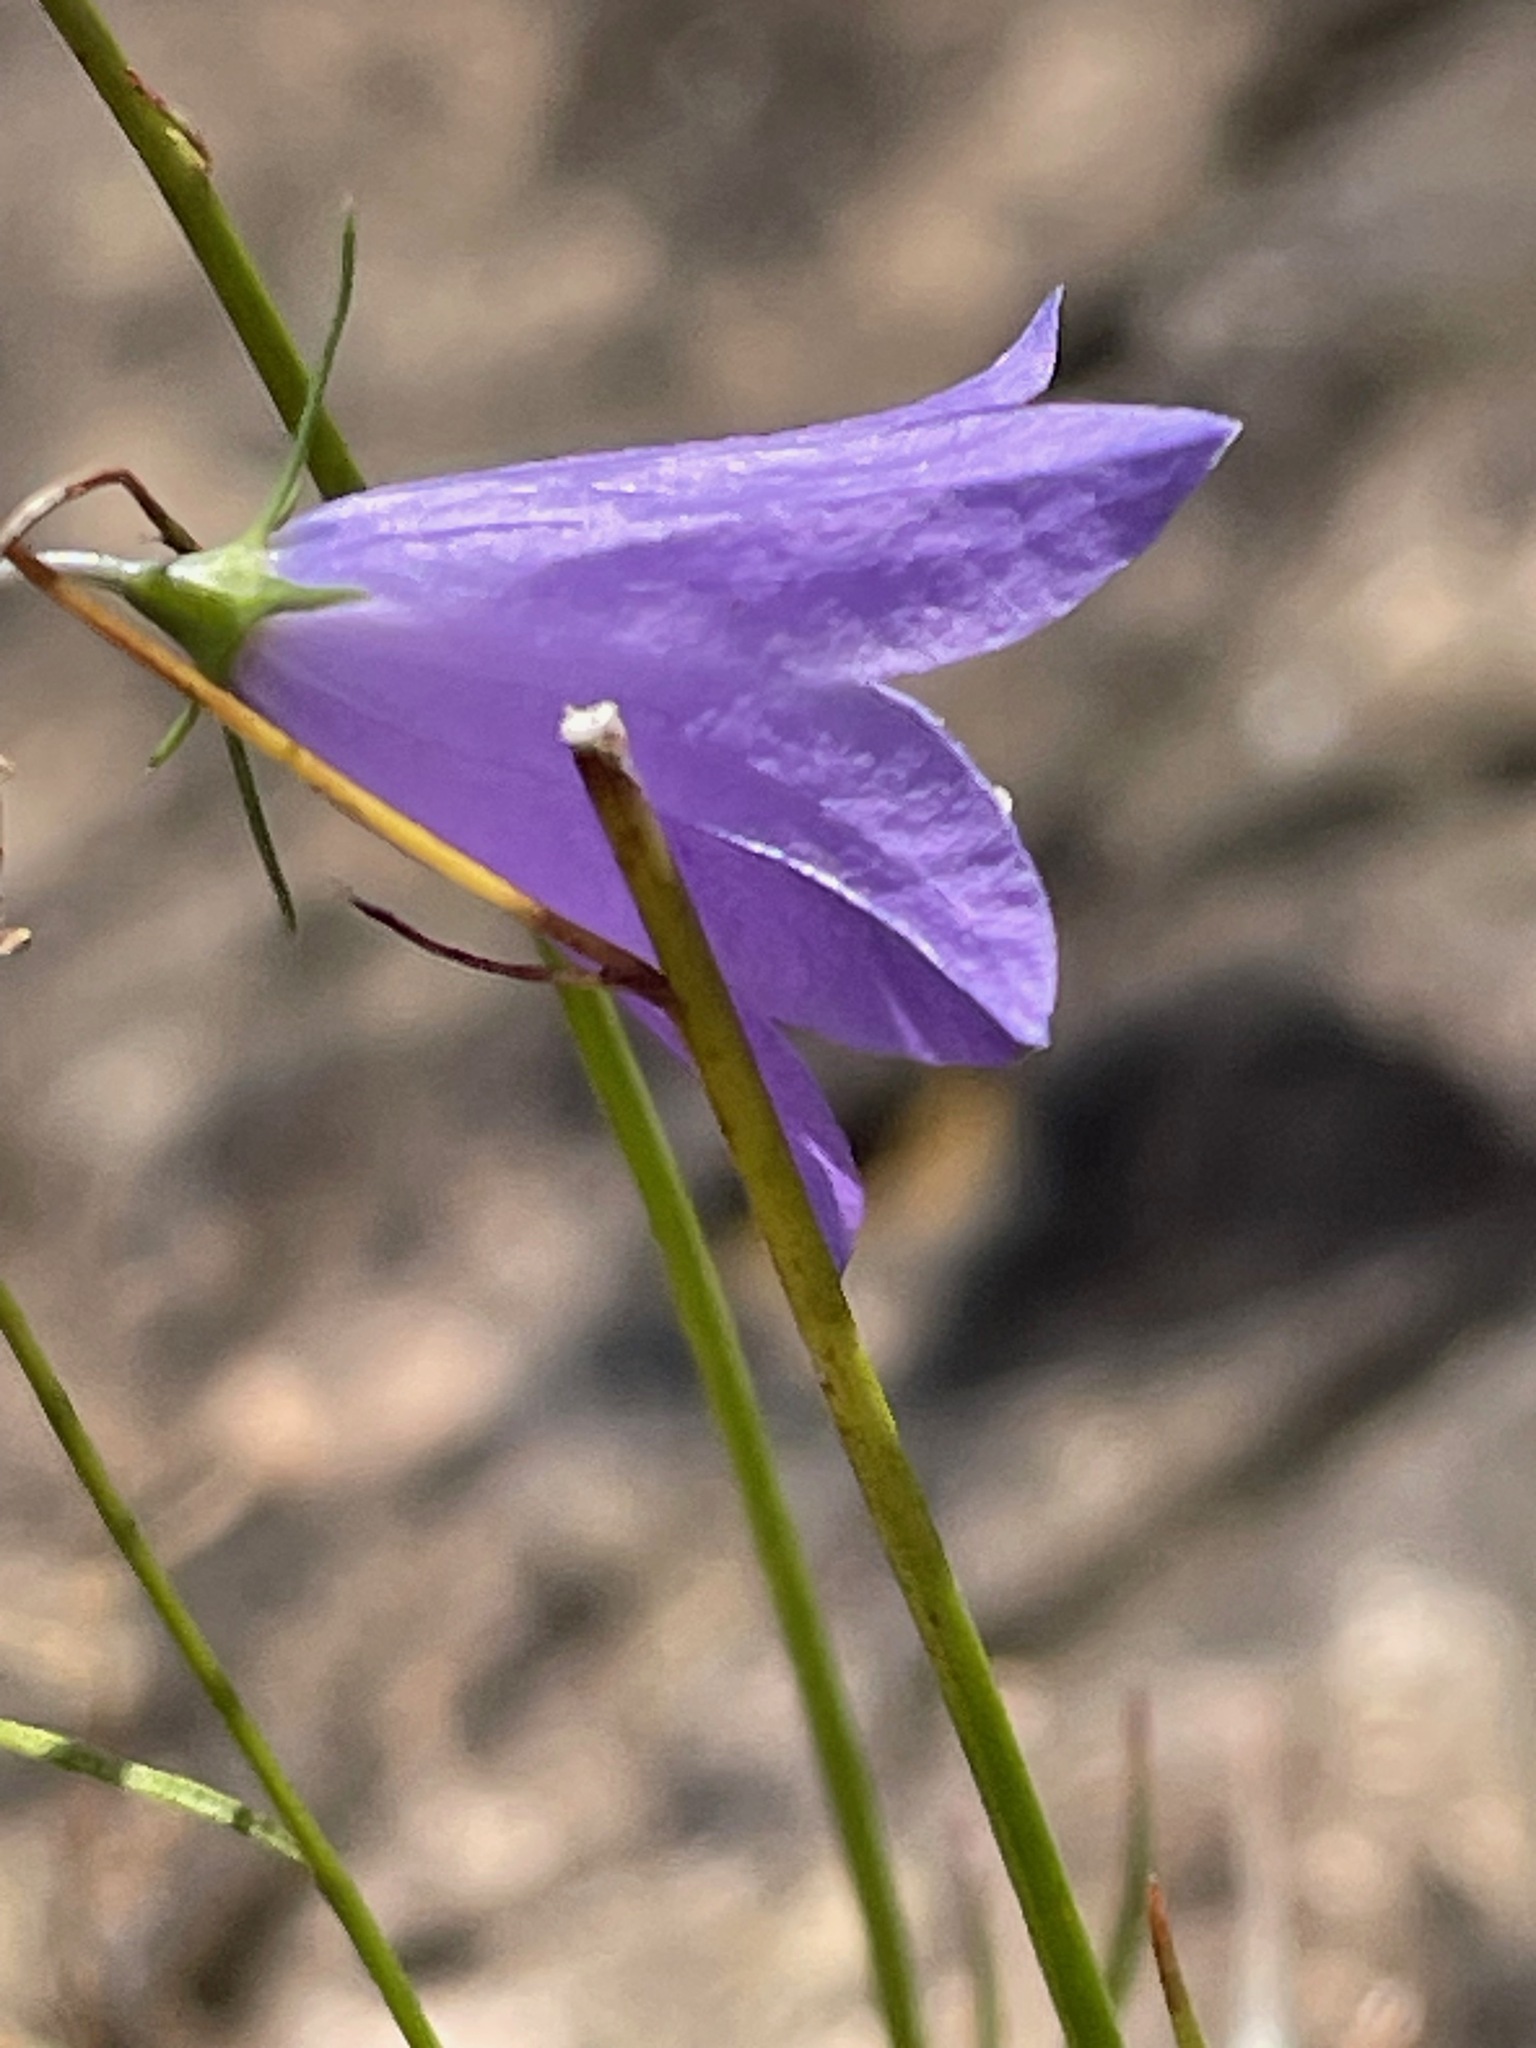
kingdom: Plantae
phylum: Tracheophyta
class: Magnoliopsida
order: Asterales
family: Campanulaceae
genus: Campanula
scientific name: Campanula intercedens
